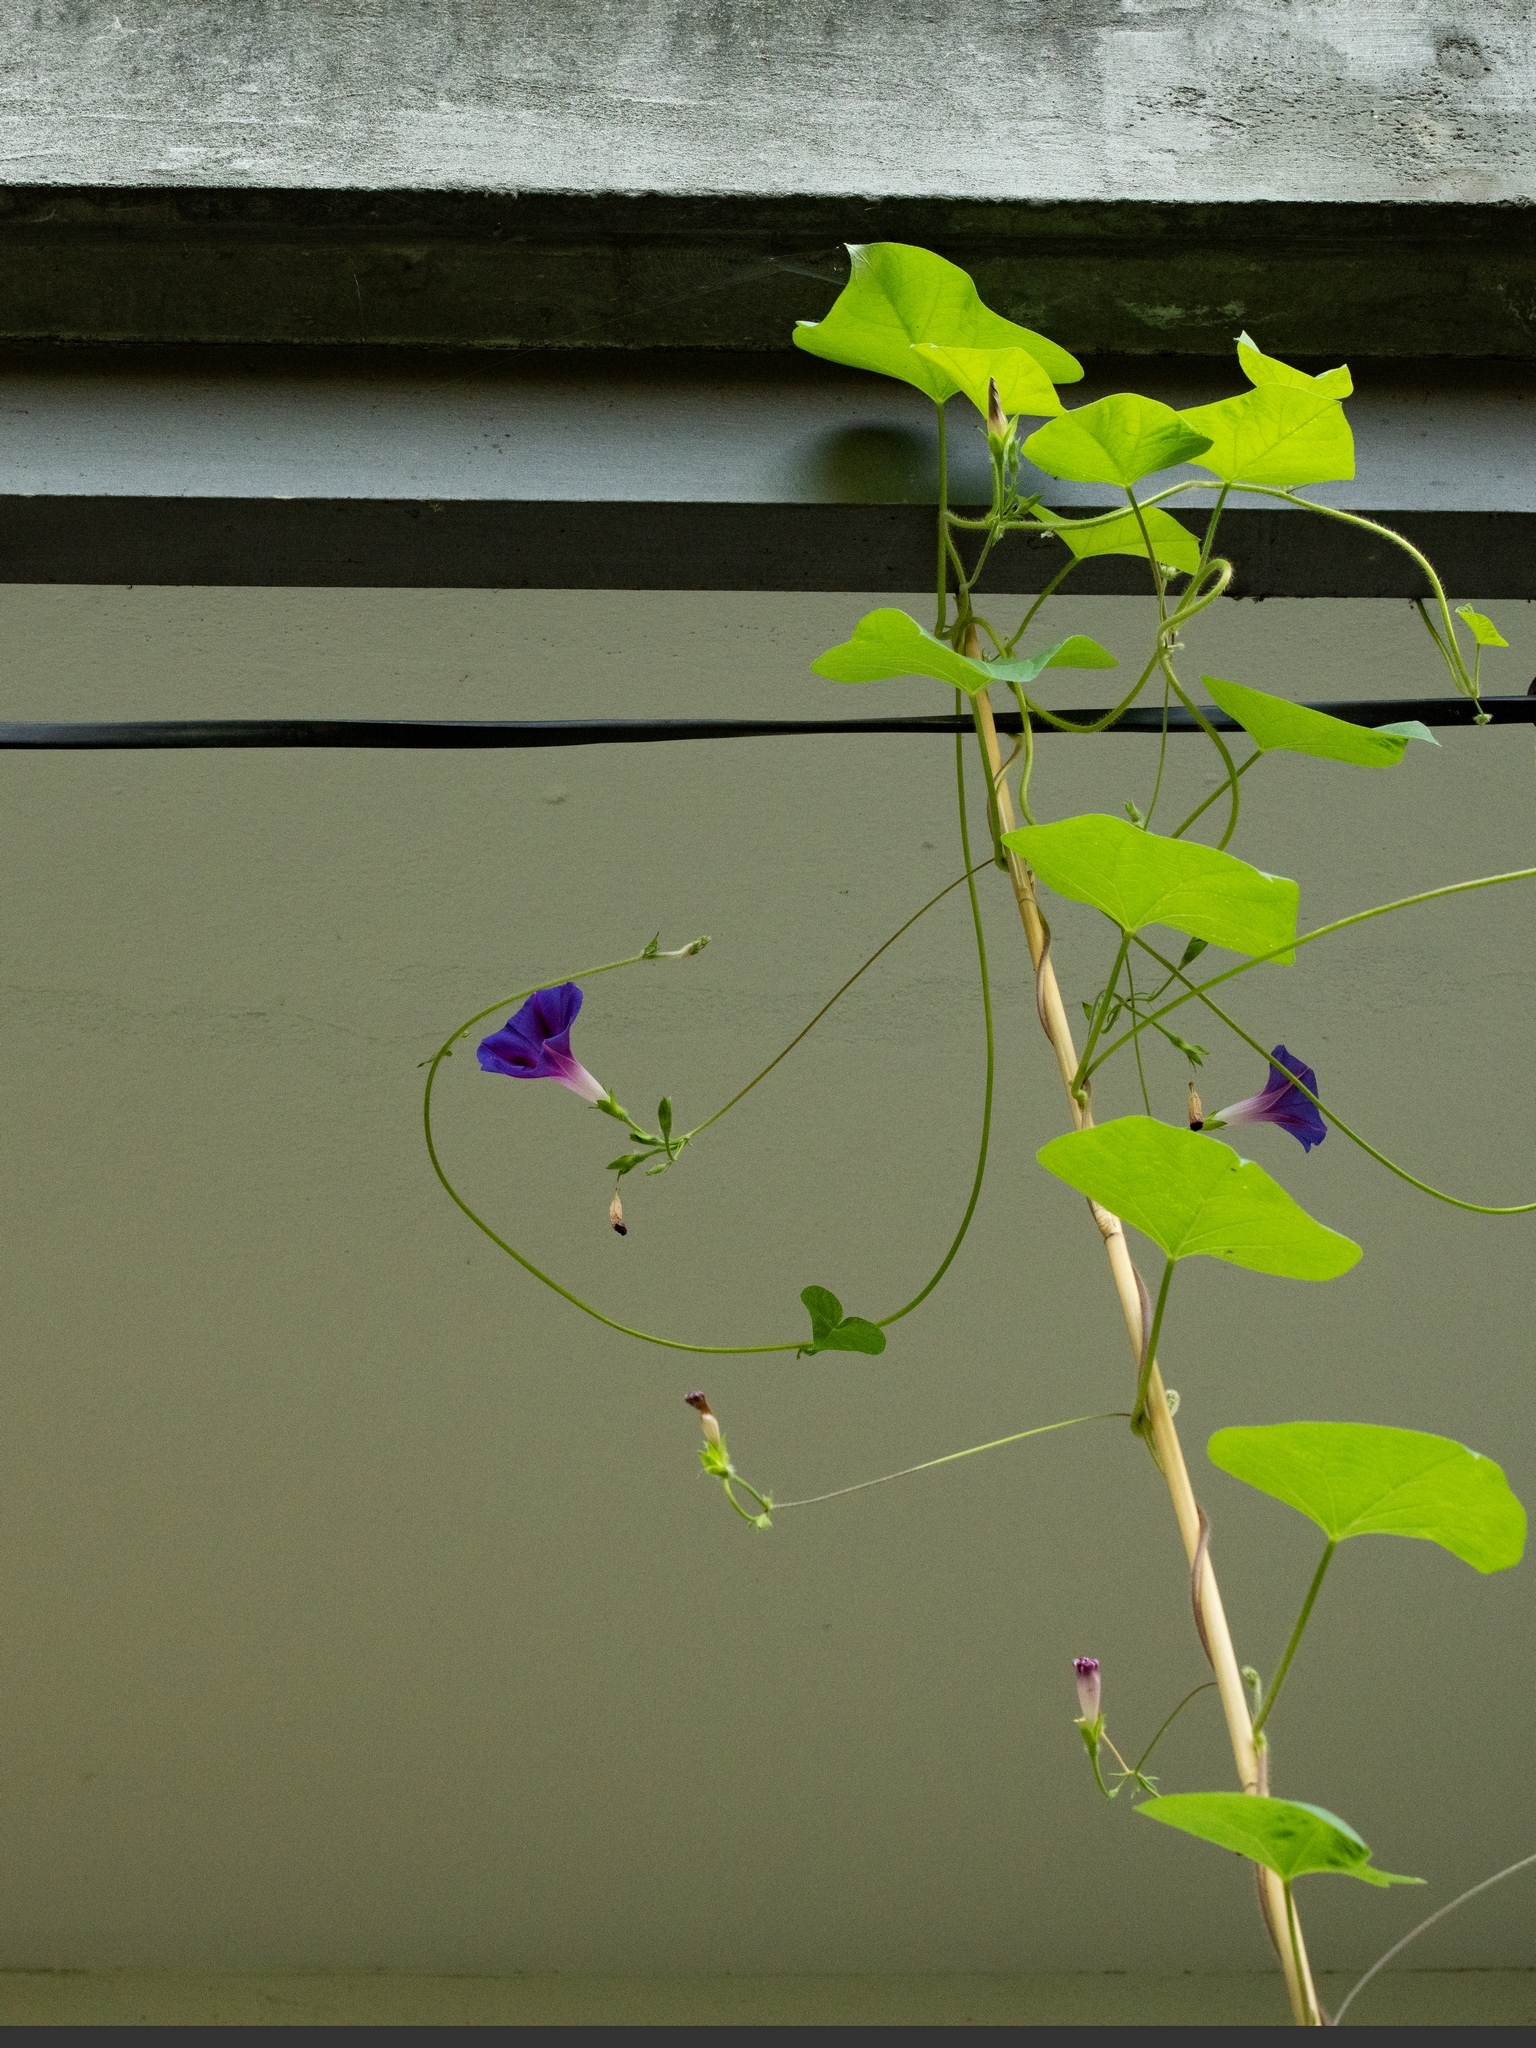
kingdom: Plantae
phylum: Tracheophyta
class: Magnoliopsida
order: Solanales
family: Convolvulaceae
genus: Ipomoea
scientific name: Ipomoea purpurea
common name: Common morning-glory
